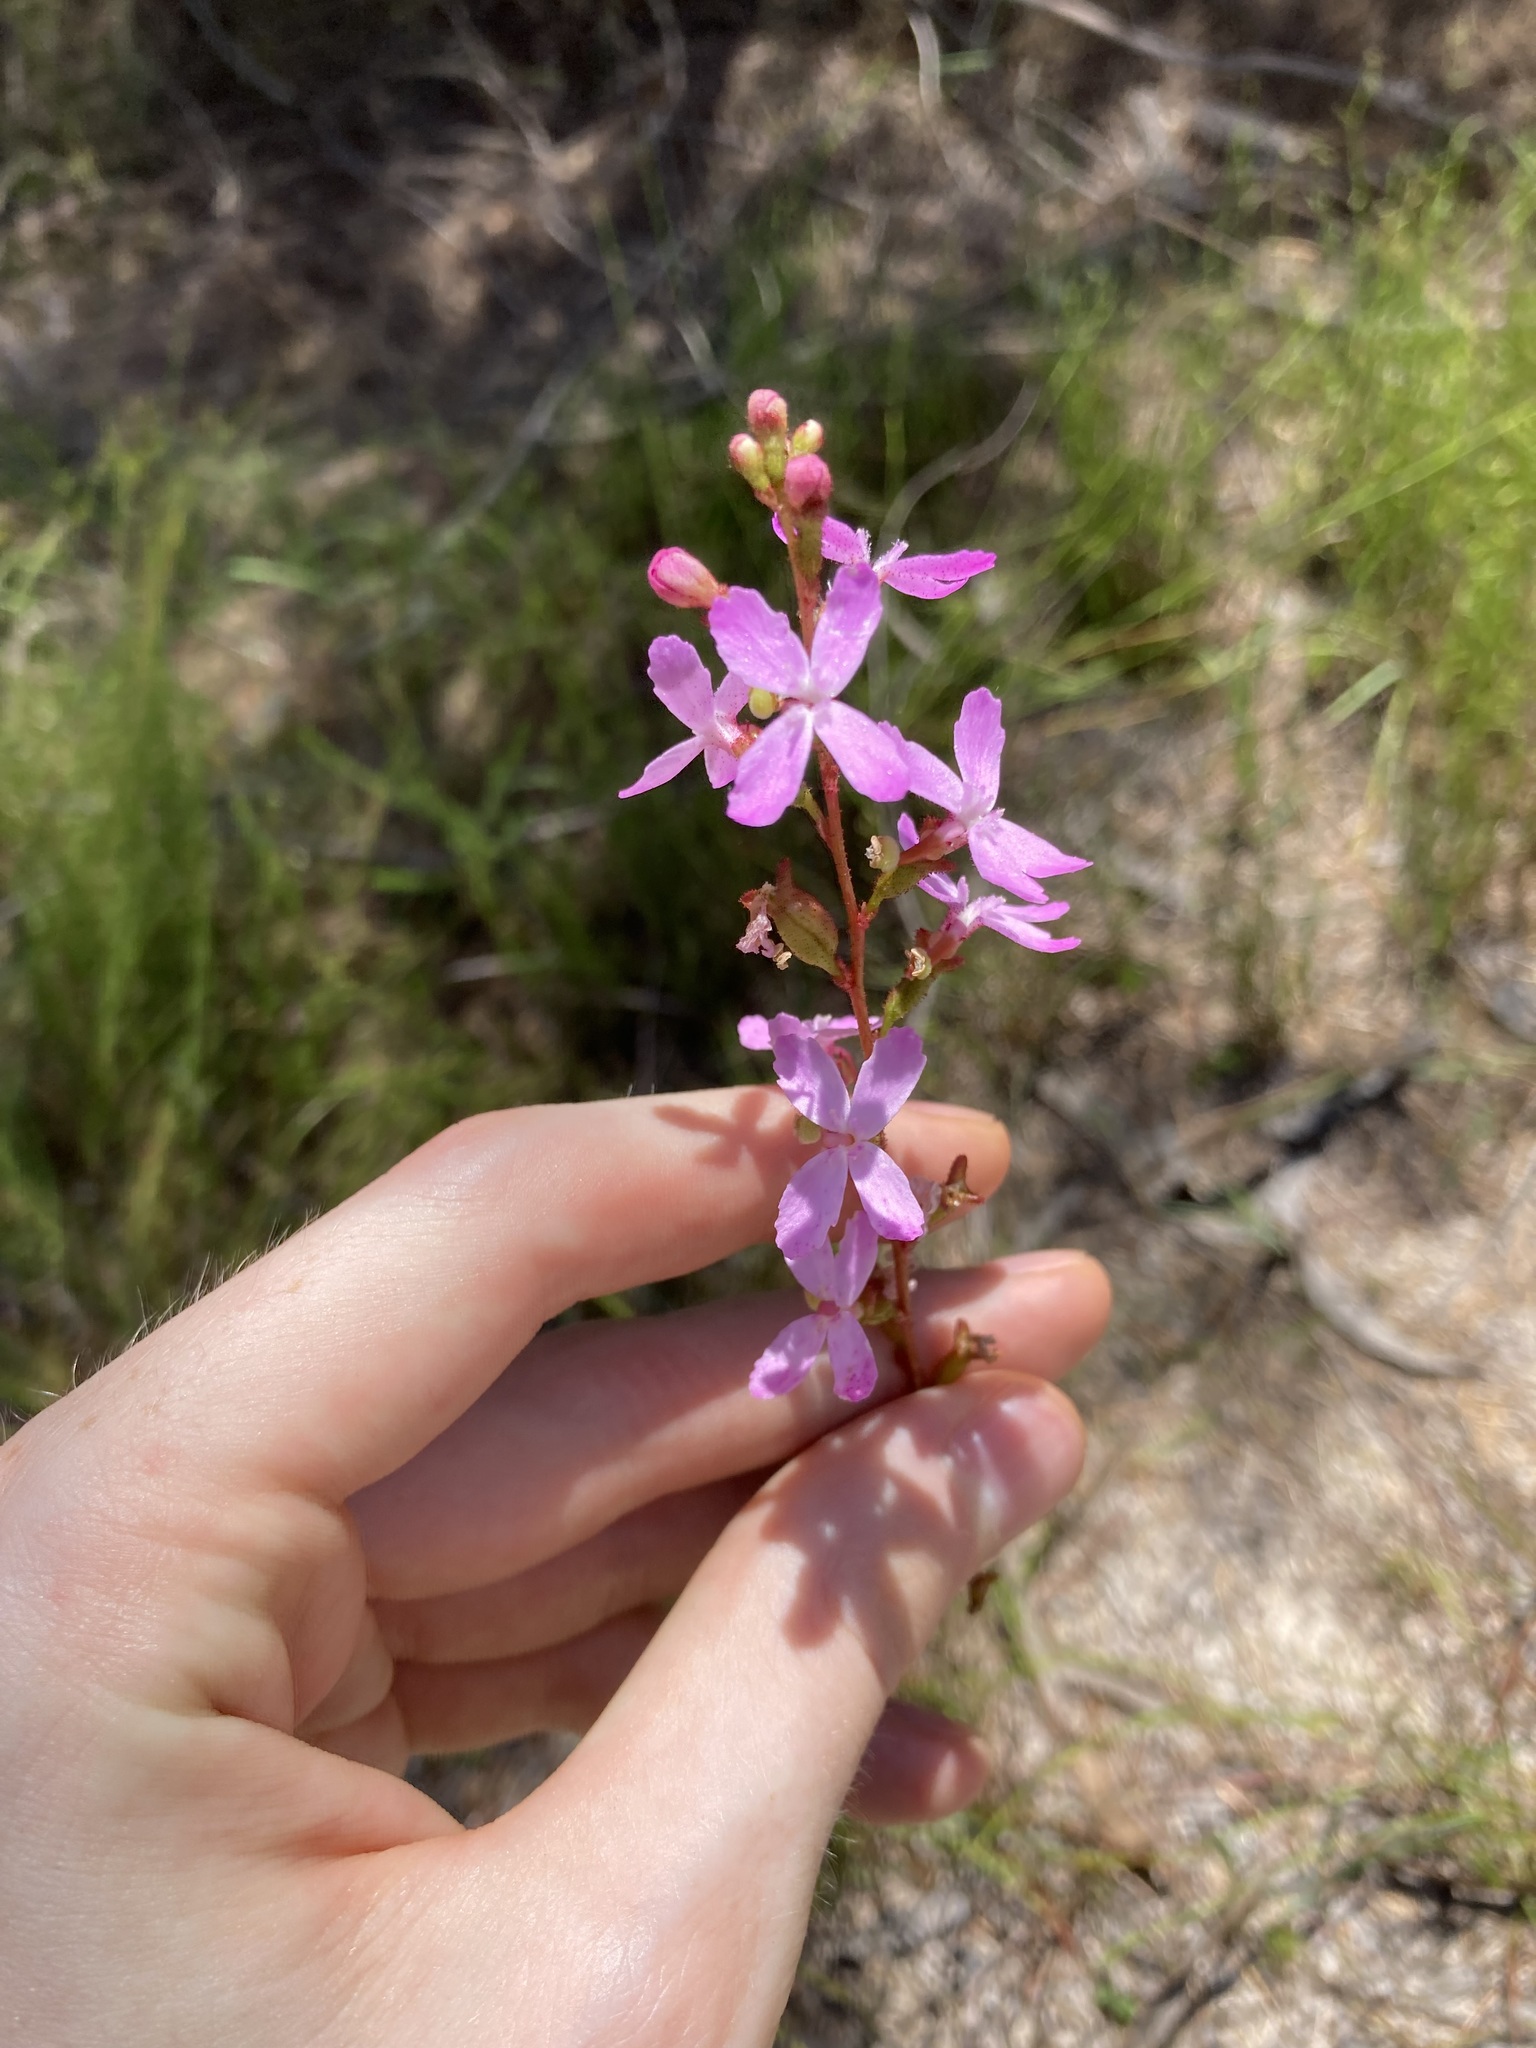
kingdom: Plantae
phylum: Tracheophyta
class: Magnoliopsida
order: Asterales
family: Stylidiaceae
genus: Stylidium
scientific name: Stylidium graminifolium
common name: Grass triggerplant
